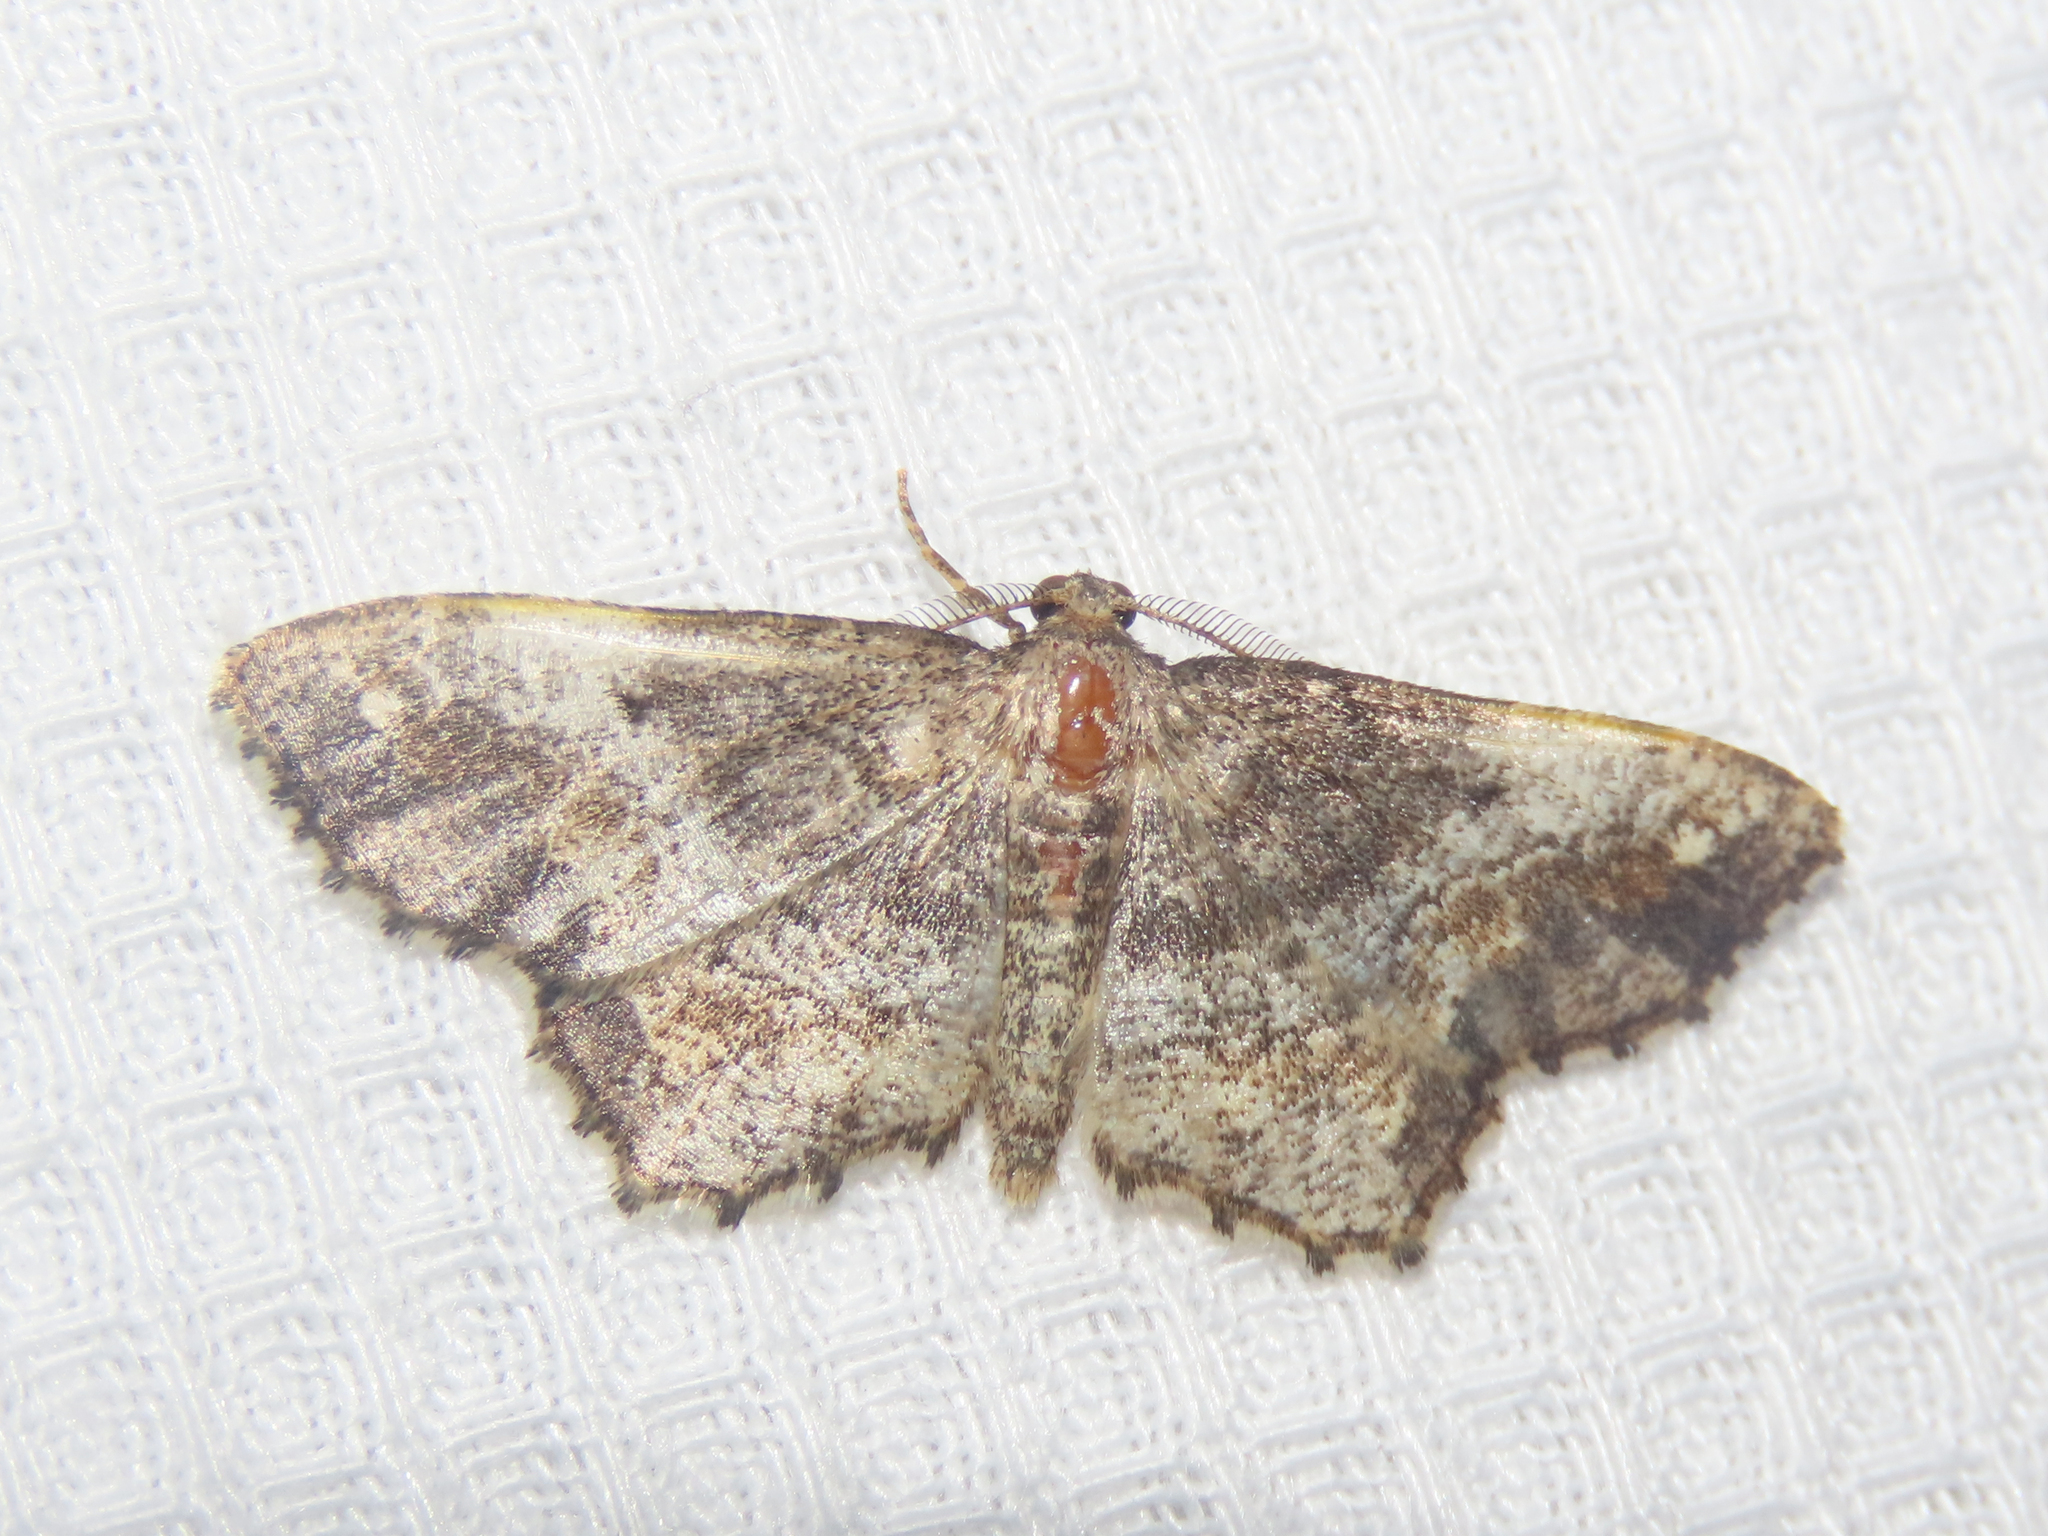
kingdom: Animalia
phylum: Arthropoda
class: Insecta
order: Lepidoptera
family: Geometridae
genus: Hypagyrtis
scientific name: Hypagyrtis unipunctata
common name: One-spotted variant
